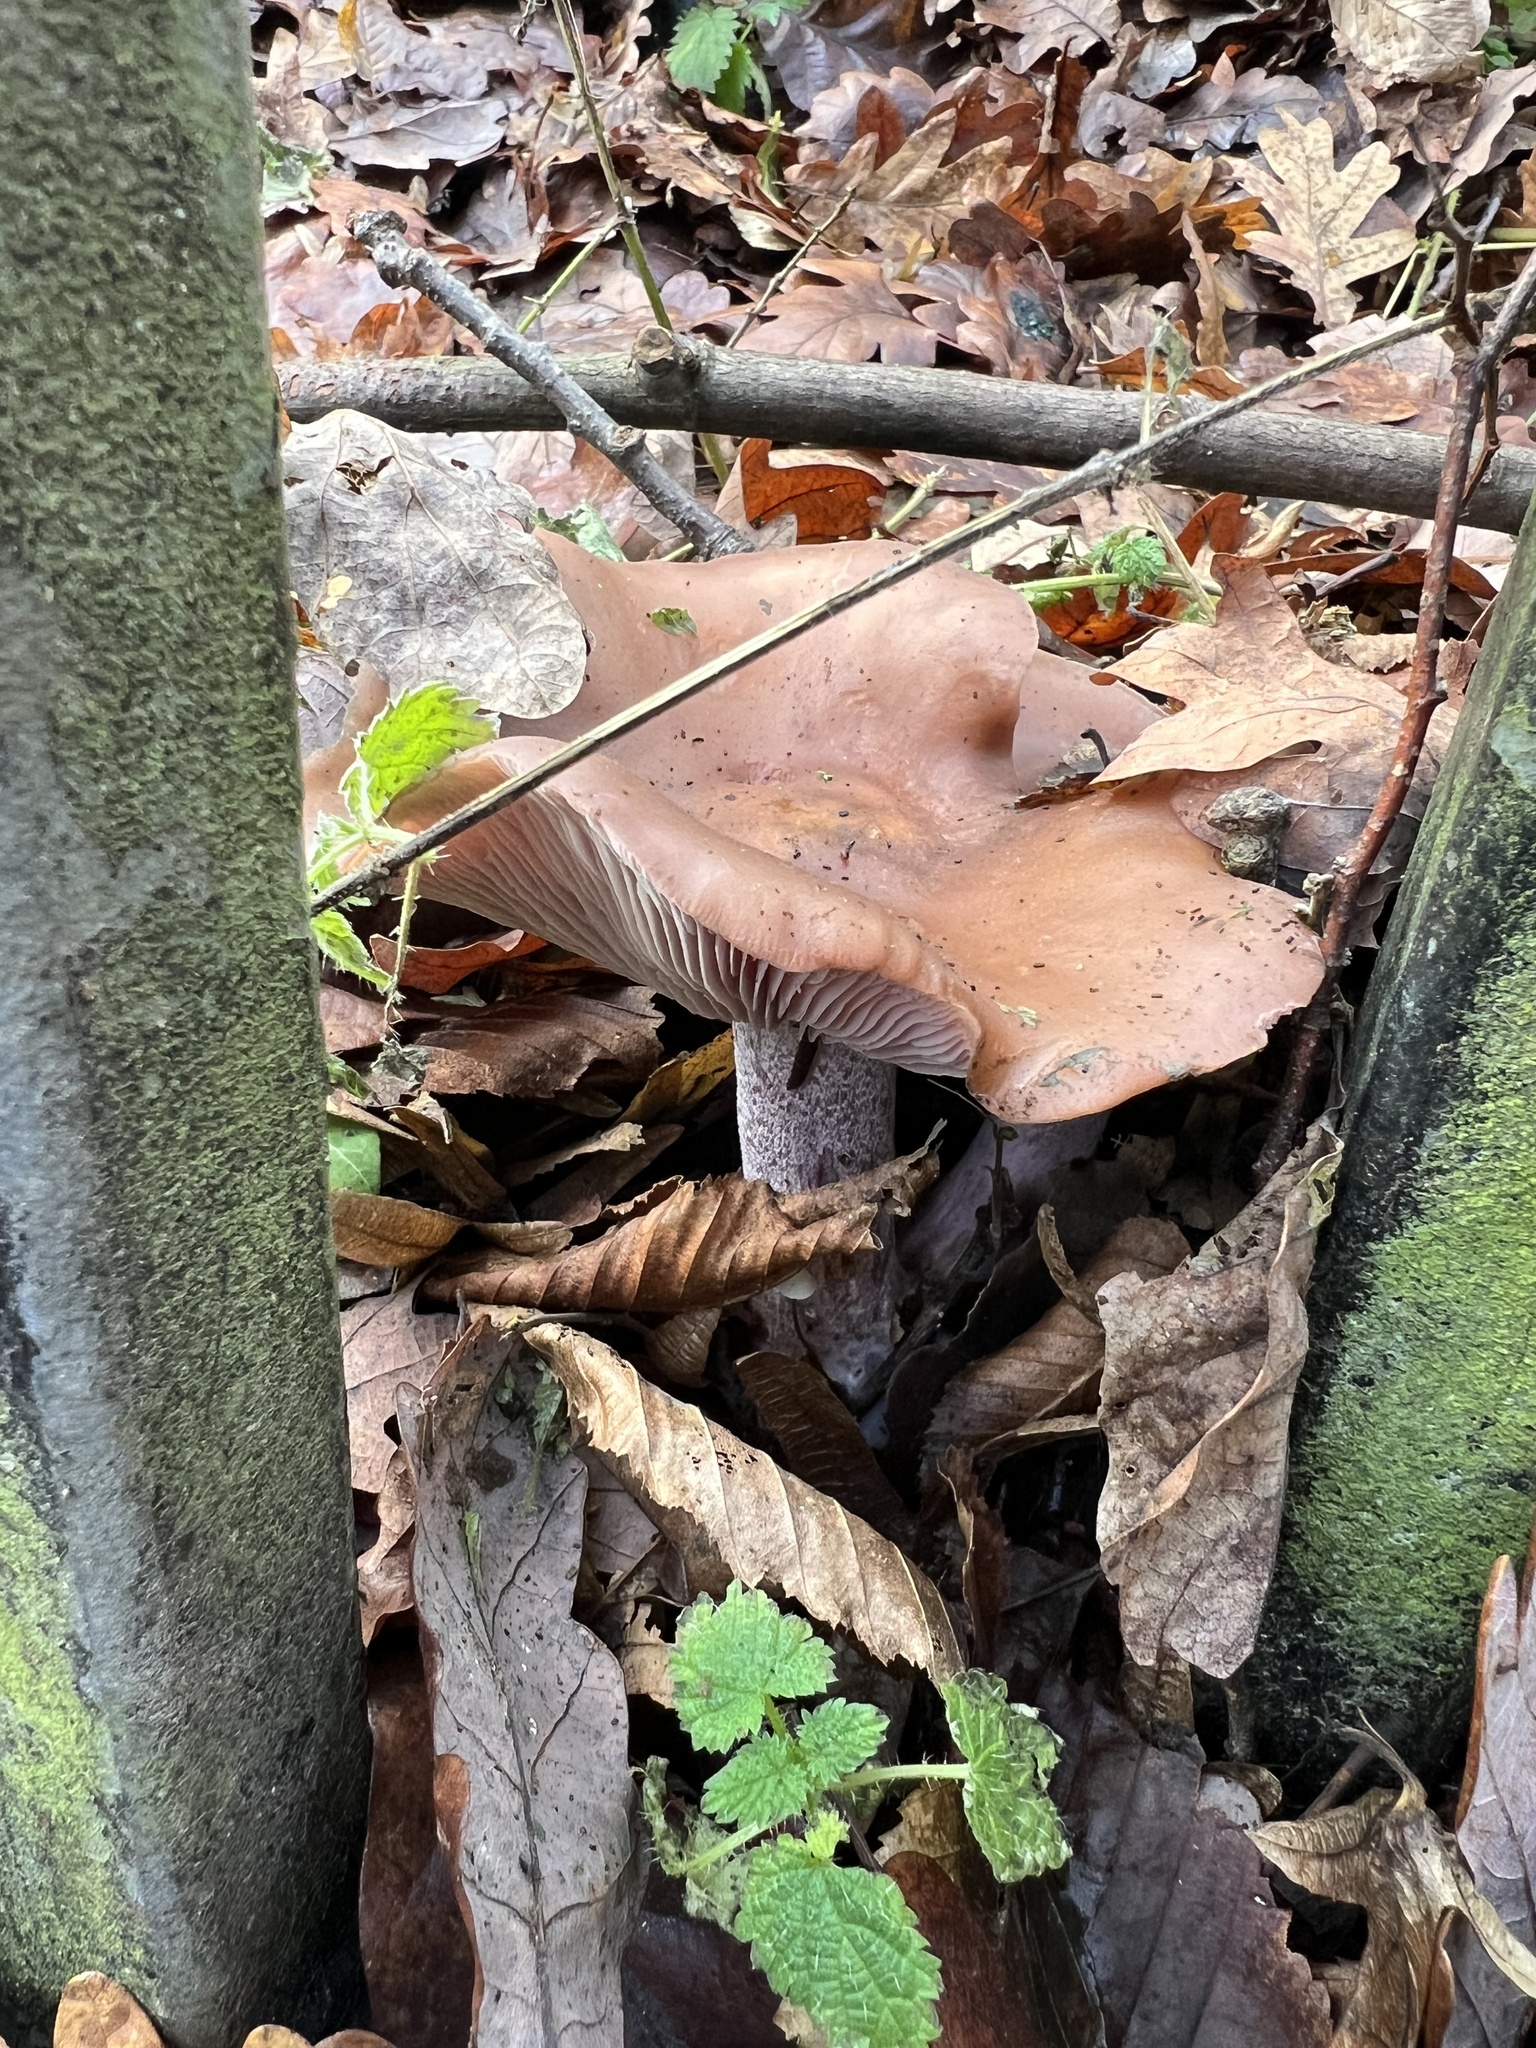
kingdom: Fungi
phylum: Basidiomycota
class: Agaricomycetes
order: Agaricales
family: Tricholomataceae
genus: Collybia
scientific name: Collybia
